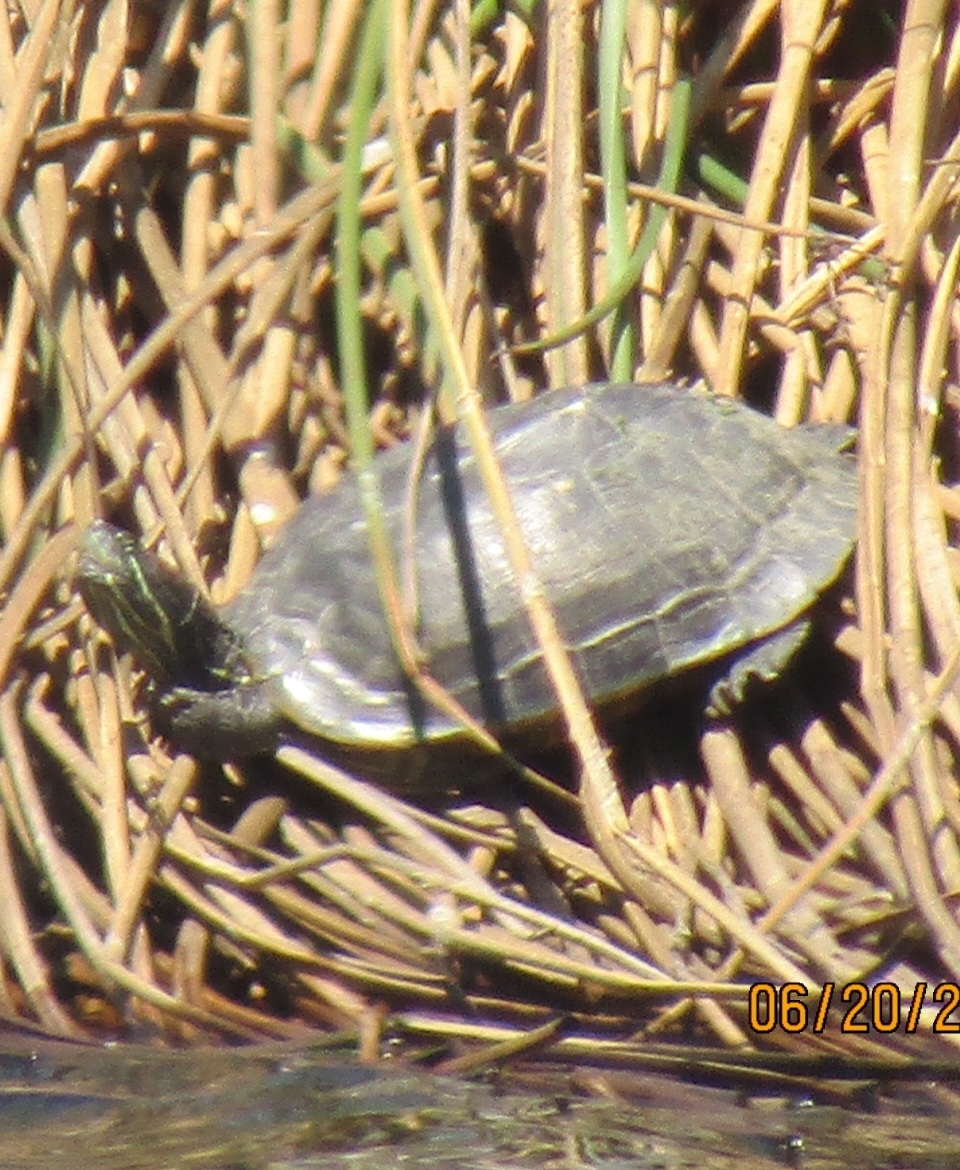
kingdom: Animalia
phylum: Chordata
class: Testudines
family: Emydidae
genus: Trachemys
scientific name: Trachemys scripta
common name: Slider
